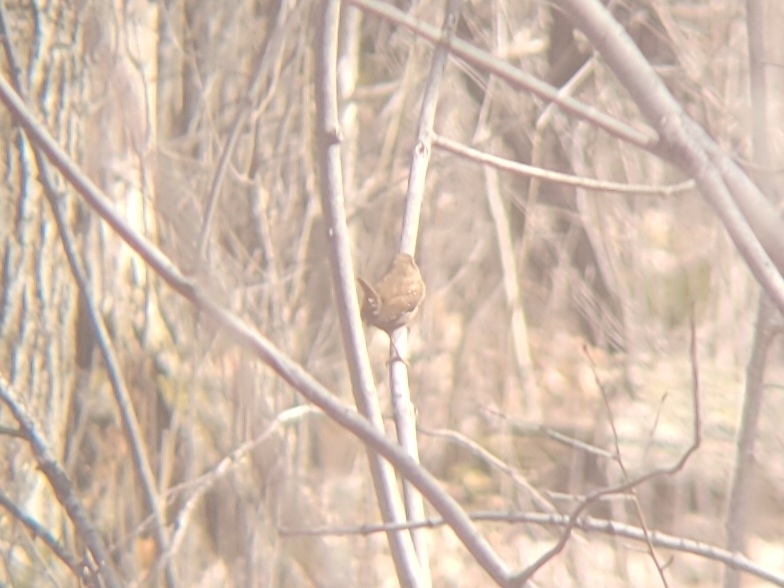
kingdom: Animalia
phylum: Chordata
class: Aves
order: Passeriformes
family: Troglodytidae
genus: Troglodytes
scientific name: Troglodytes hiemalis
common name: Winter wren
